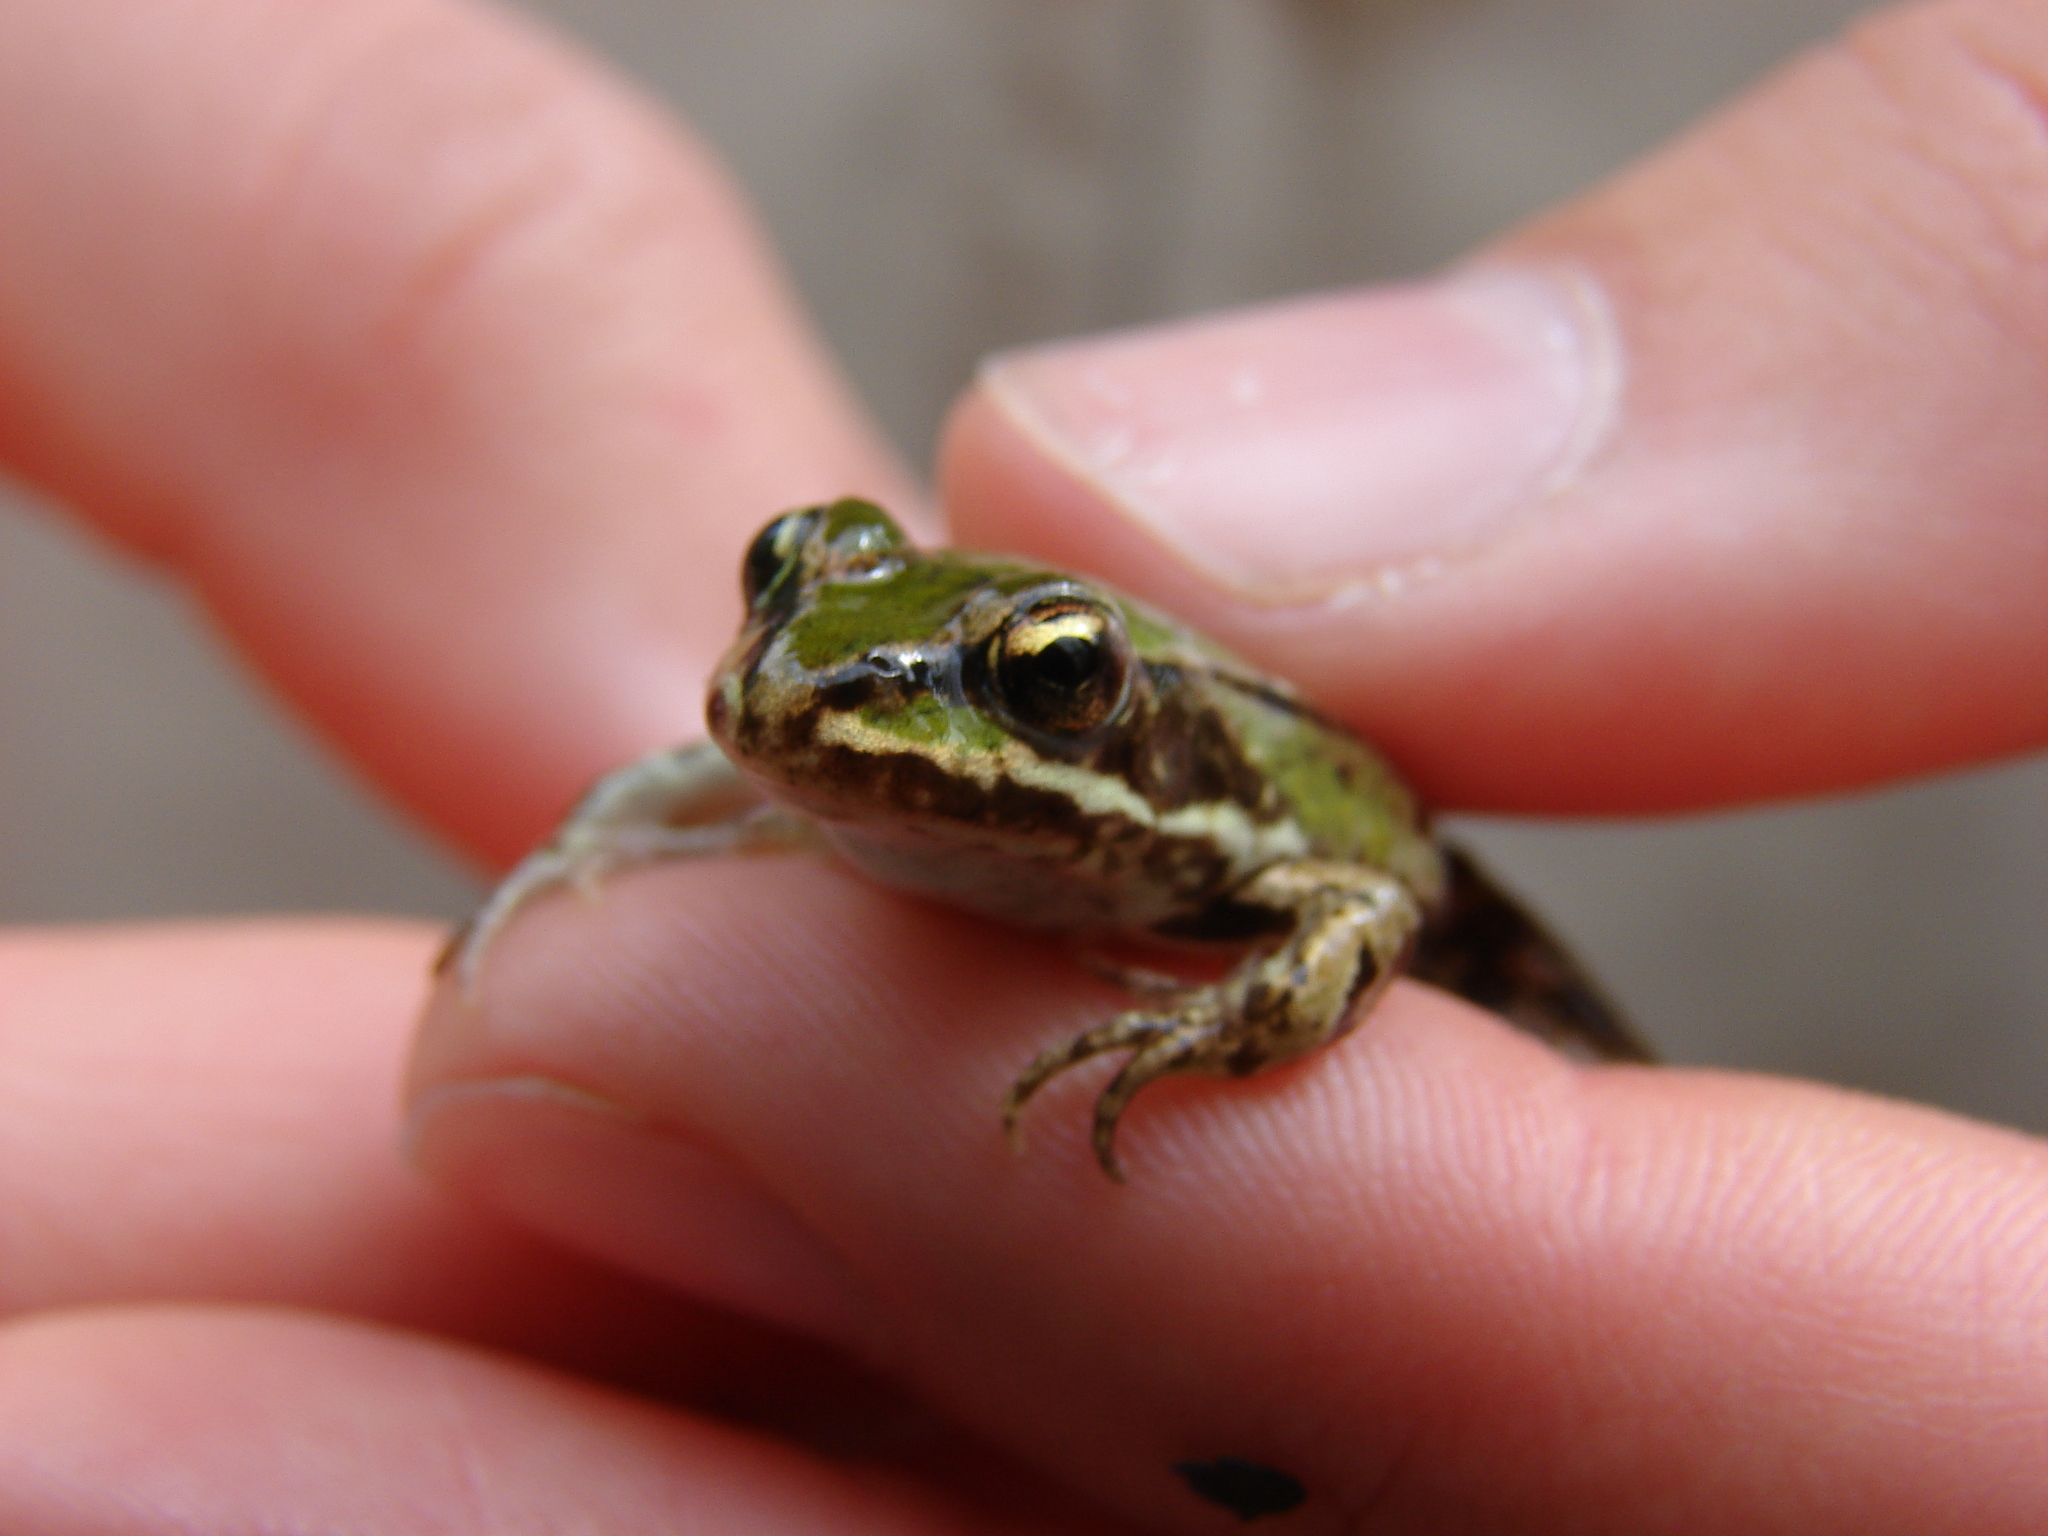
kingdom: Animalia
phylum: Chordata
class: Amphibia
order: Anura
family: Ranidae
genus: Pelophylax
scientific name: Pelophylax
